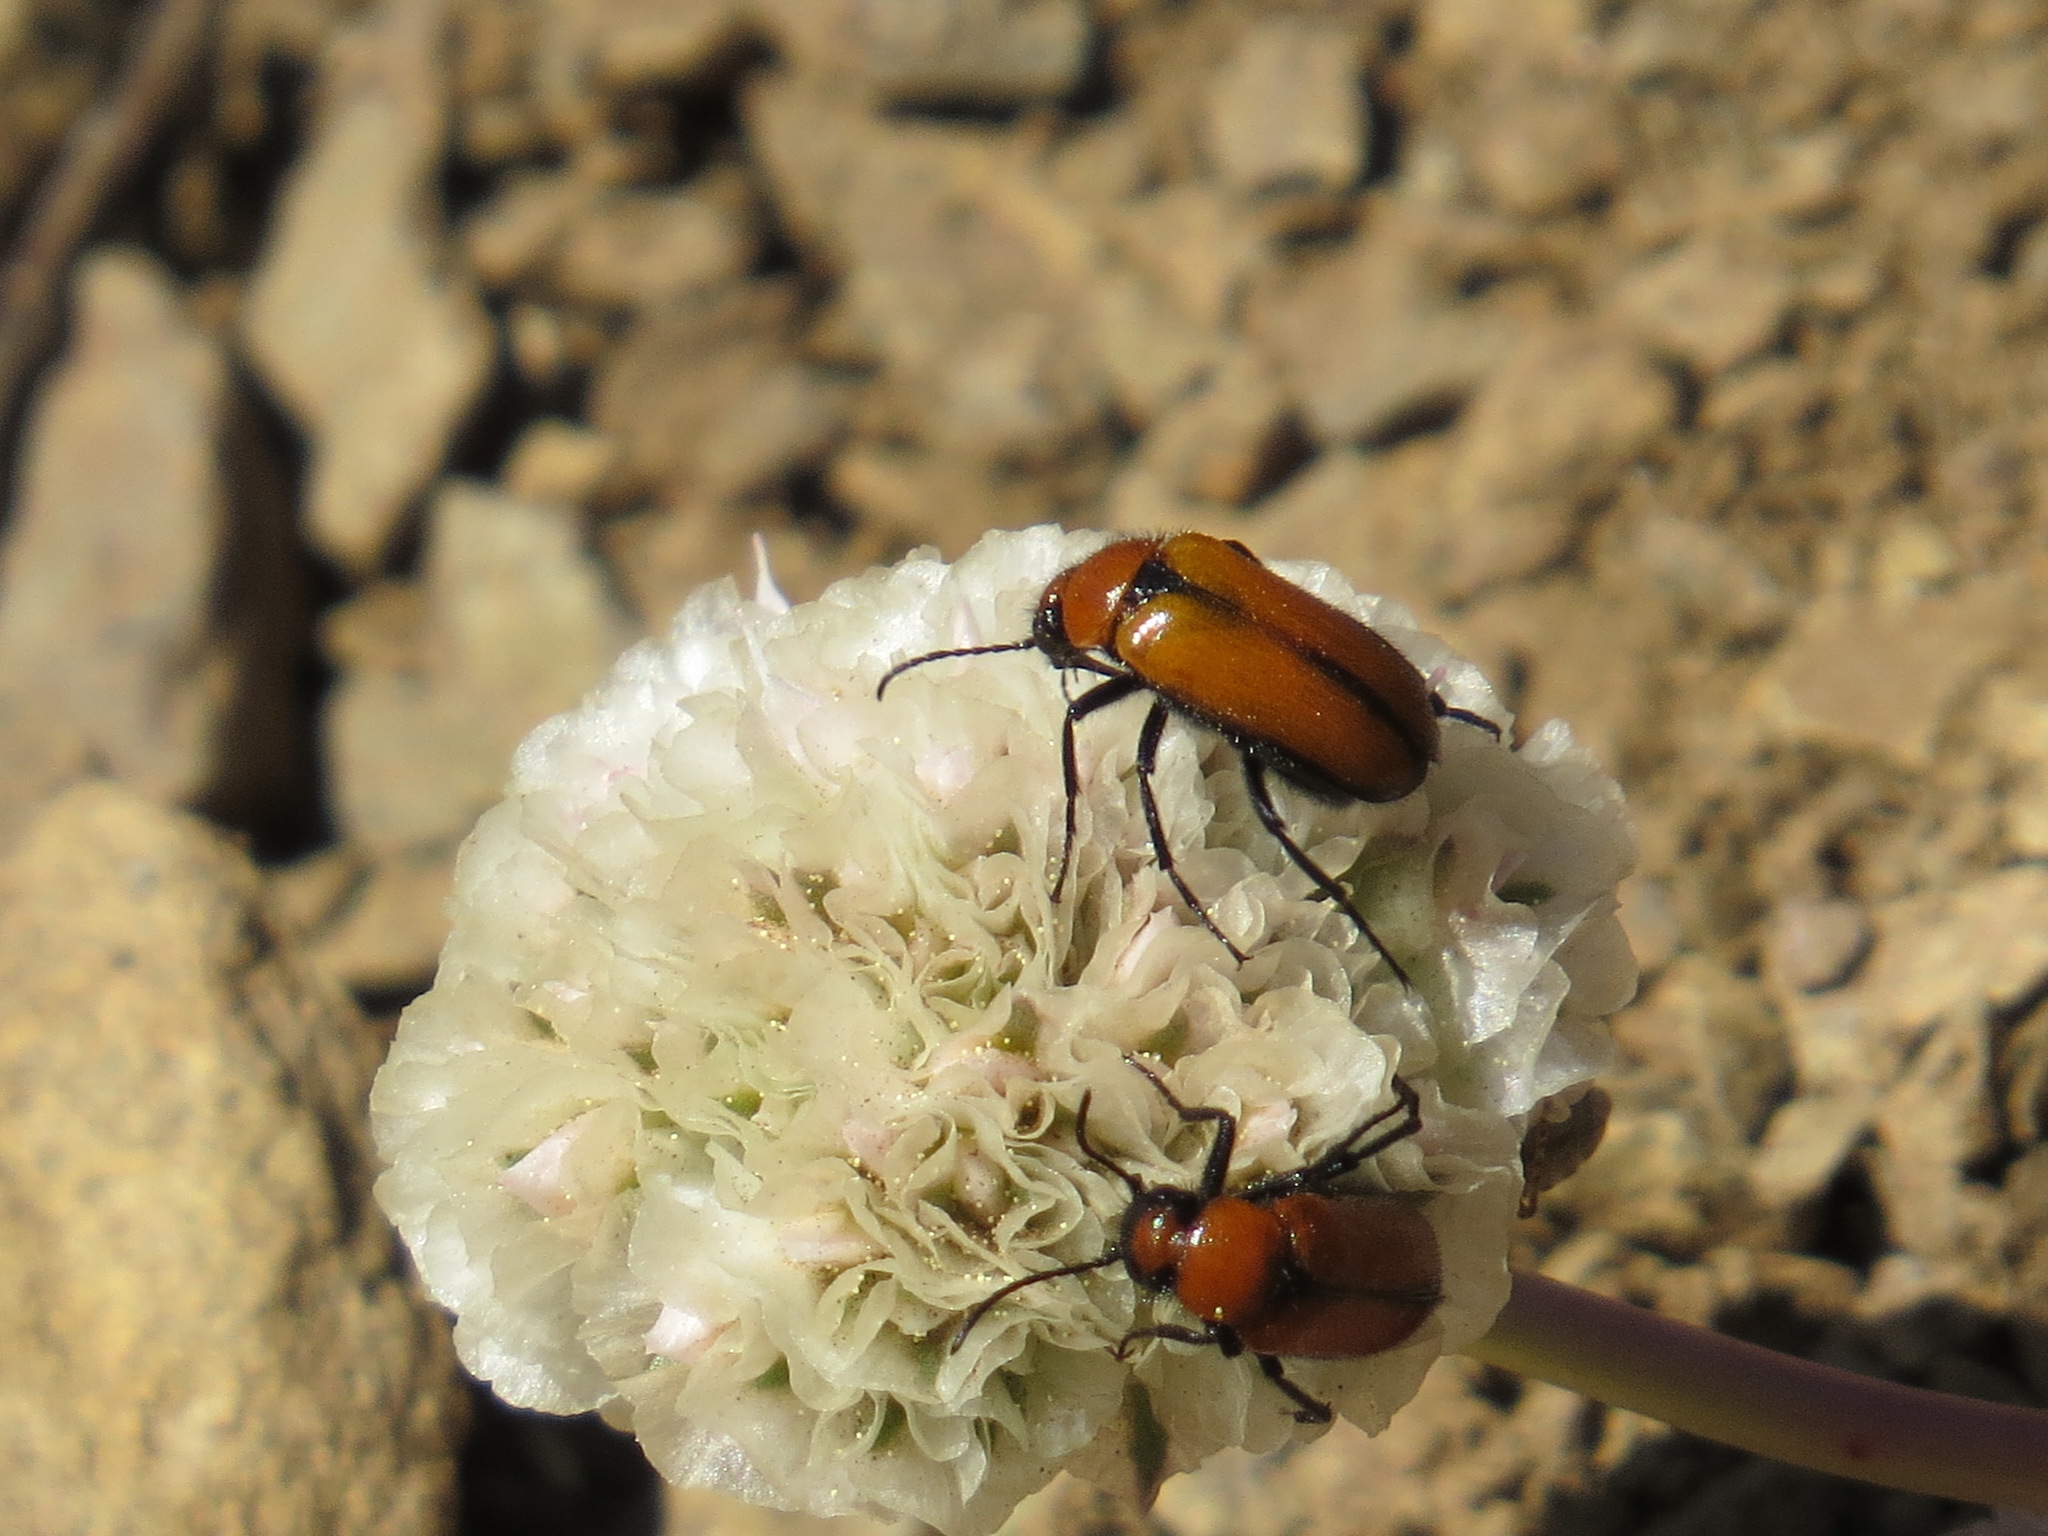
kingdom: Animalia
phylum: Arthropoda
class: Insecta
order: Coleoptera
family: Meloidae
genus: Nemognatha
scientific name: Nemognatha scutellaris
